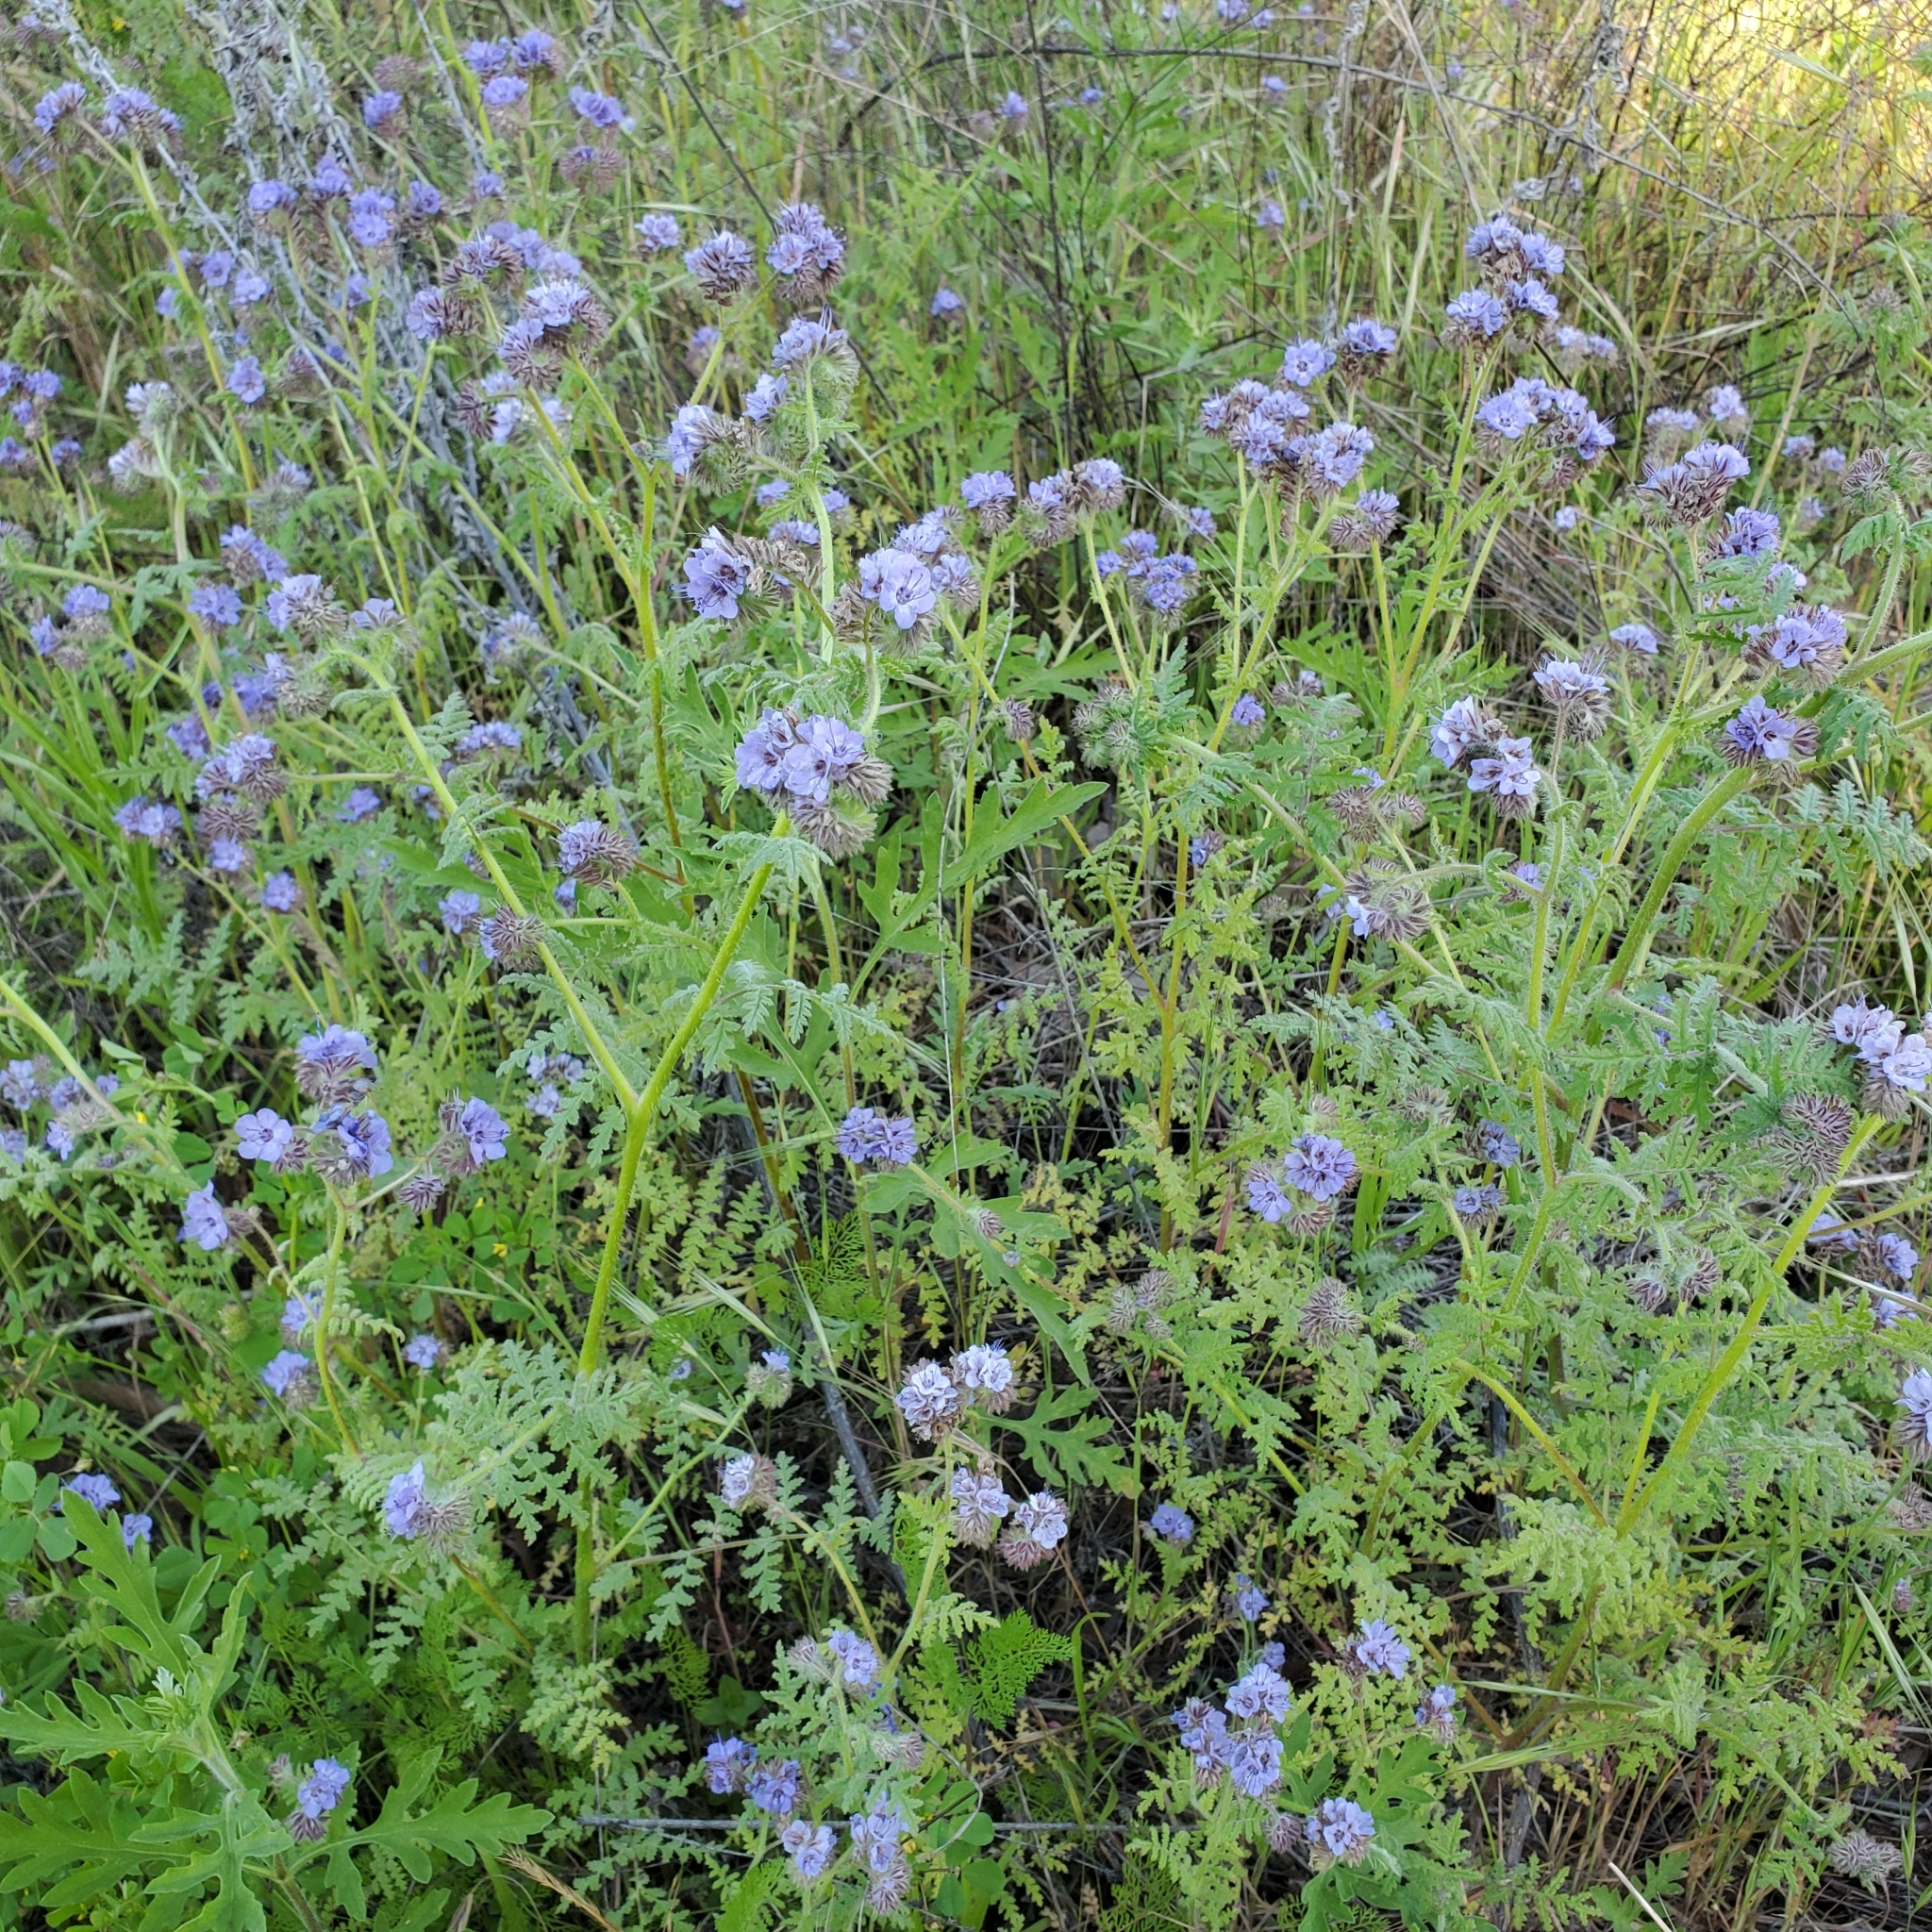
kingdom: Plantae
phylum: Tracheophyta
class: Magnoliopsida
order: Boraginales
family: Hydrophyllaceae
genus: Phacelia
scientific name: Phacelia distans
